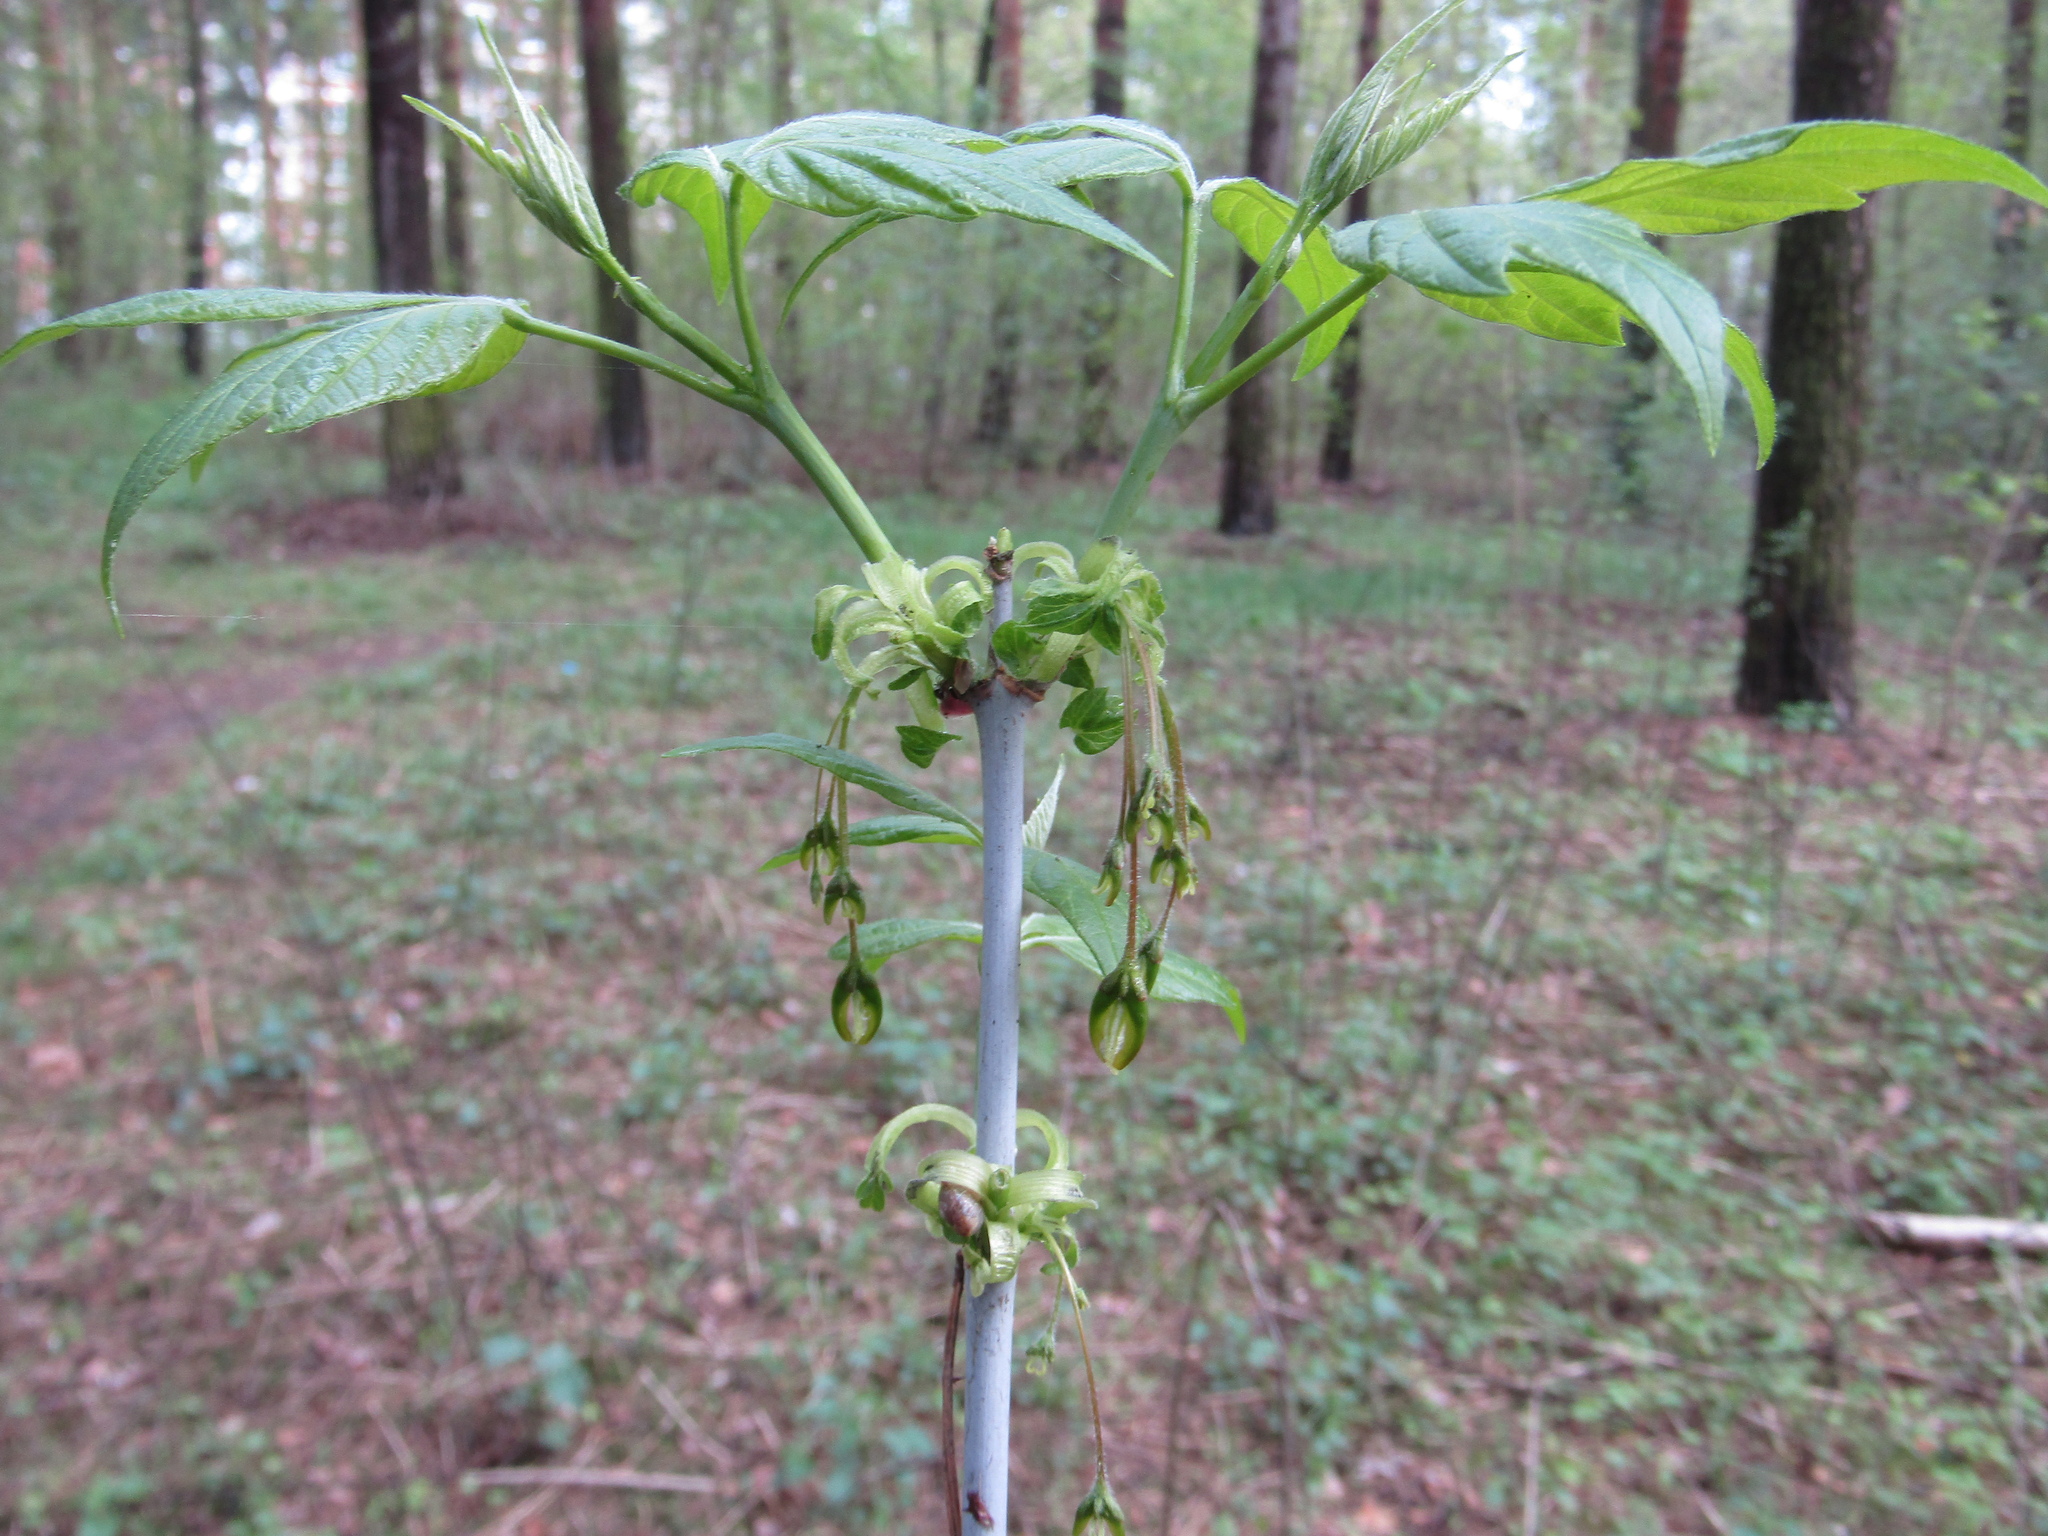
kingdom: Plantae
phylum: Tracheophyta
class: Magnoliopsida
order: Sapindales
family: Sapindaceae
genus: Acer
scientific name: Acer negundo
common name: Ashleaf maple
